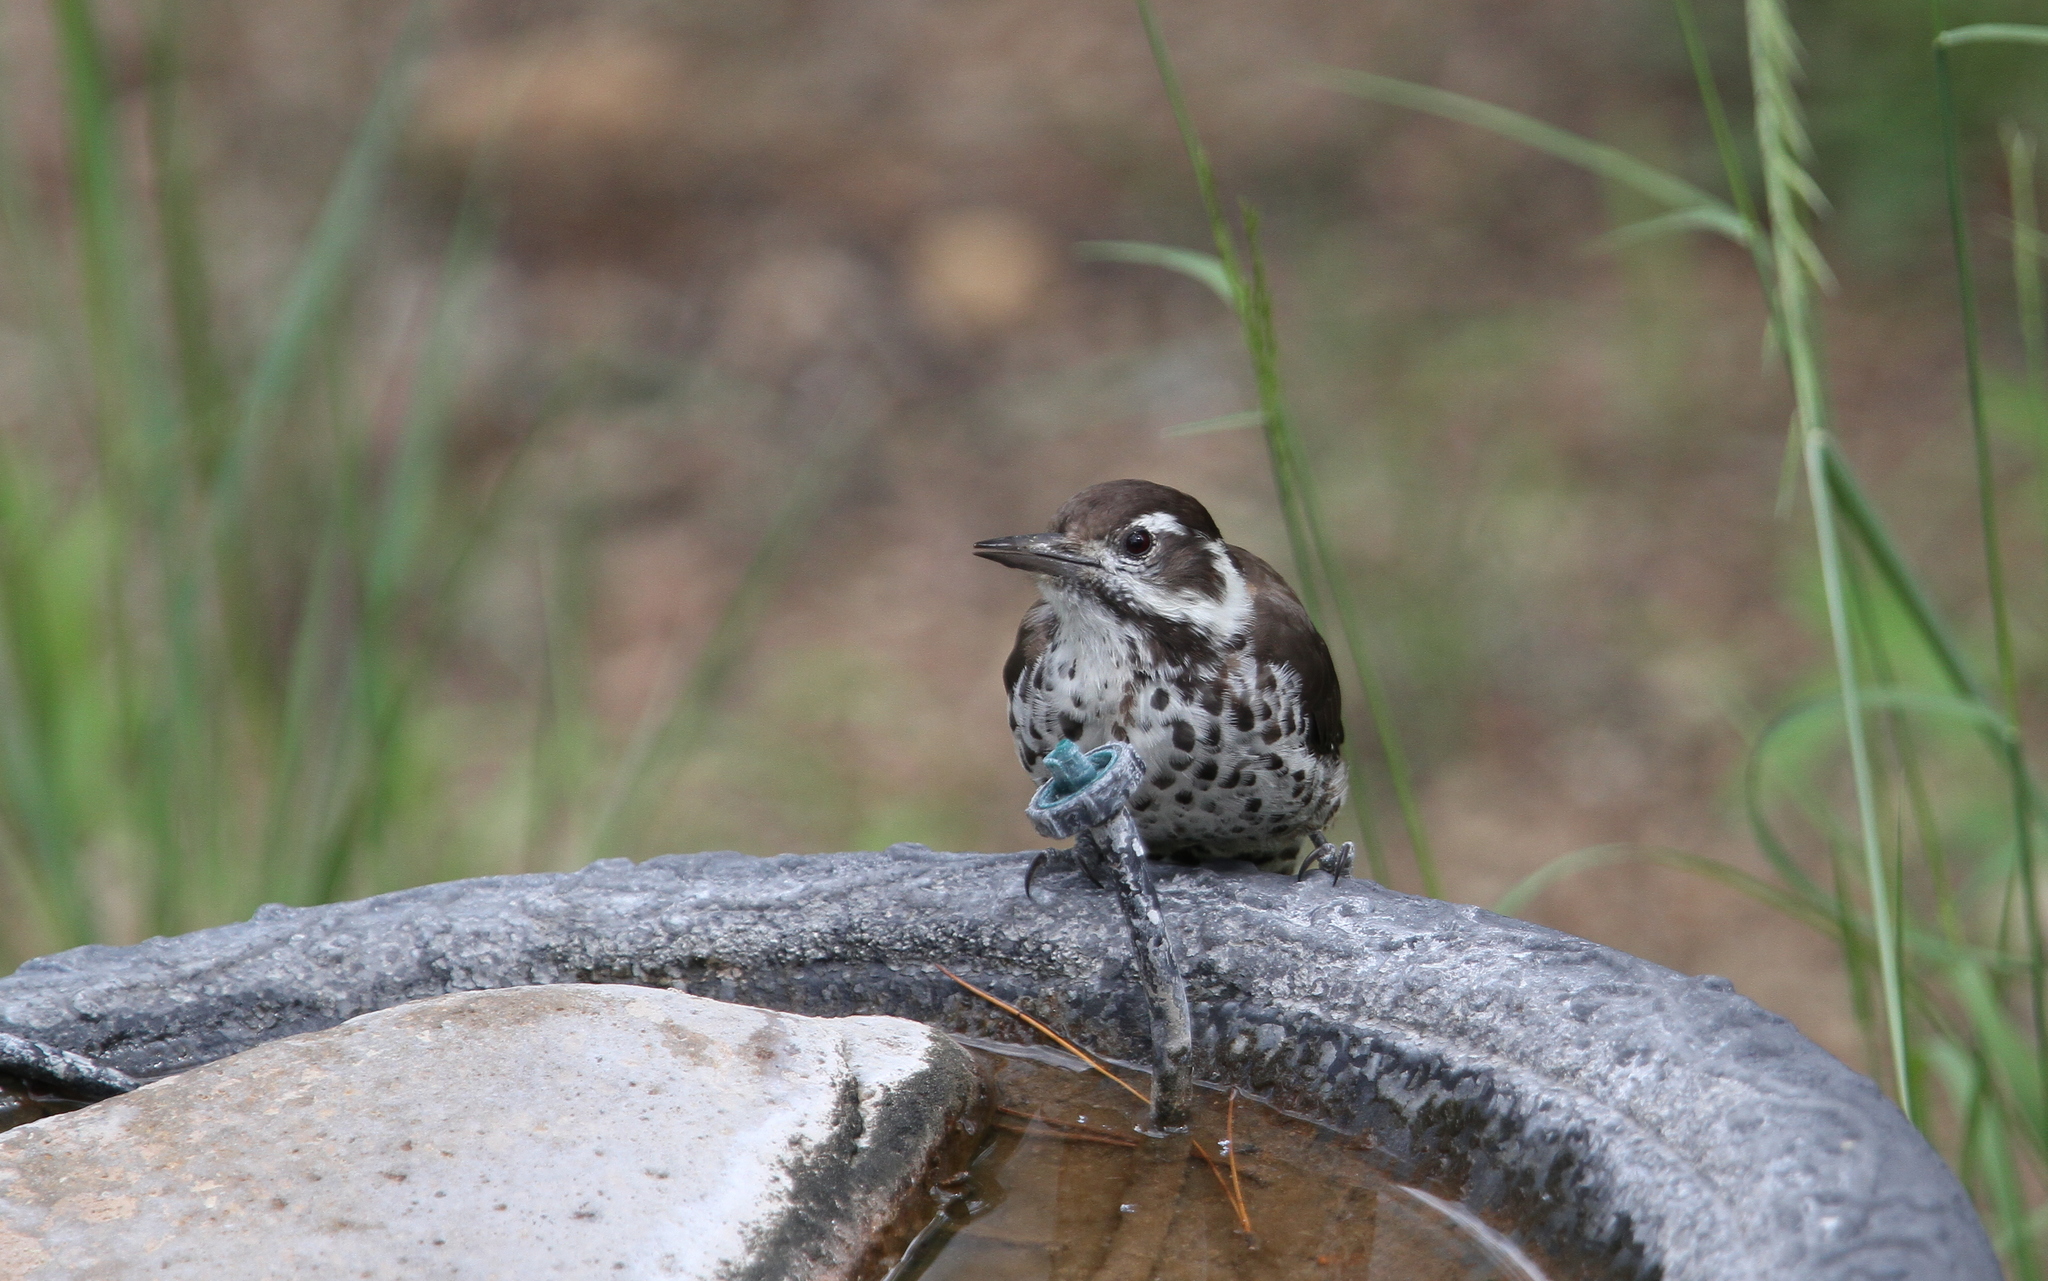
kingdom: Animalia
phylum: Chordata
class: Aves
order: Piciformes
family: Picidae
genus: Leuconotopicus
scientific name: Leuconotopicus arizonae
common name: Arizona woodpecker
